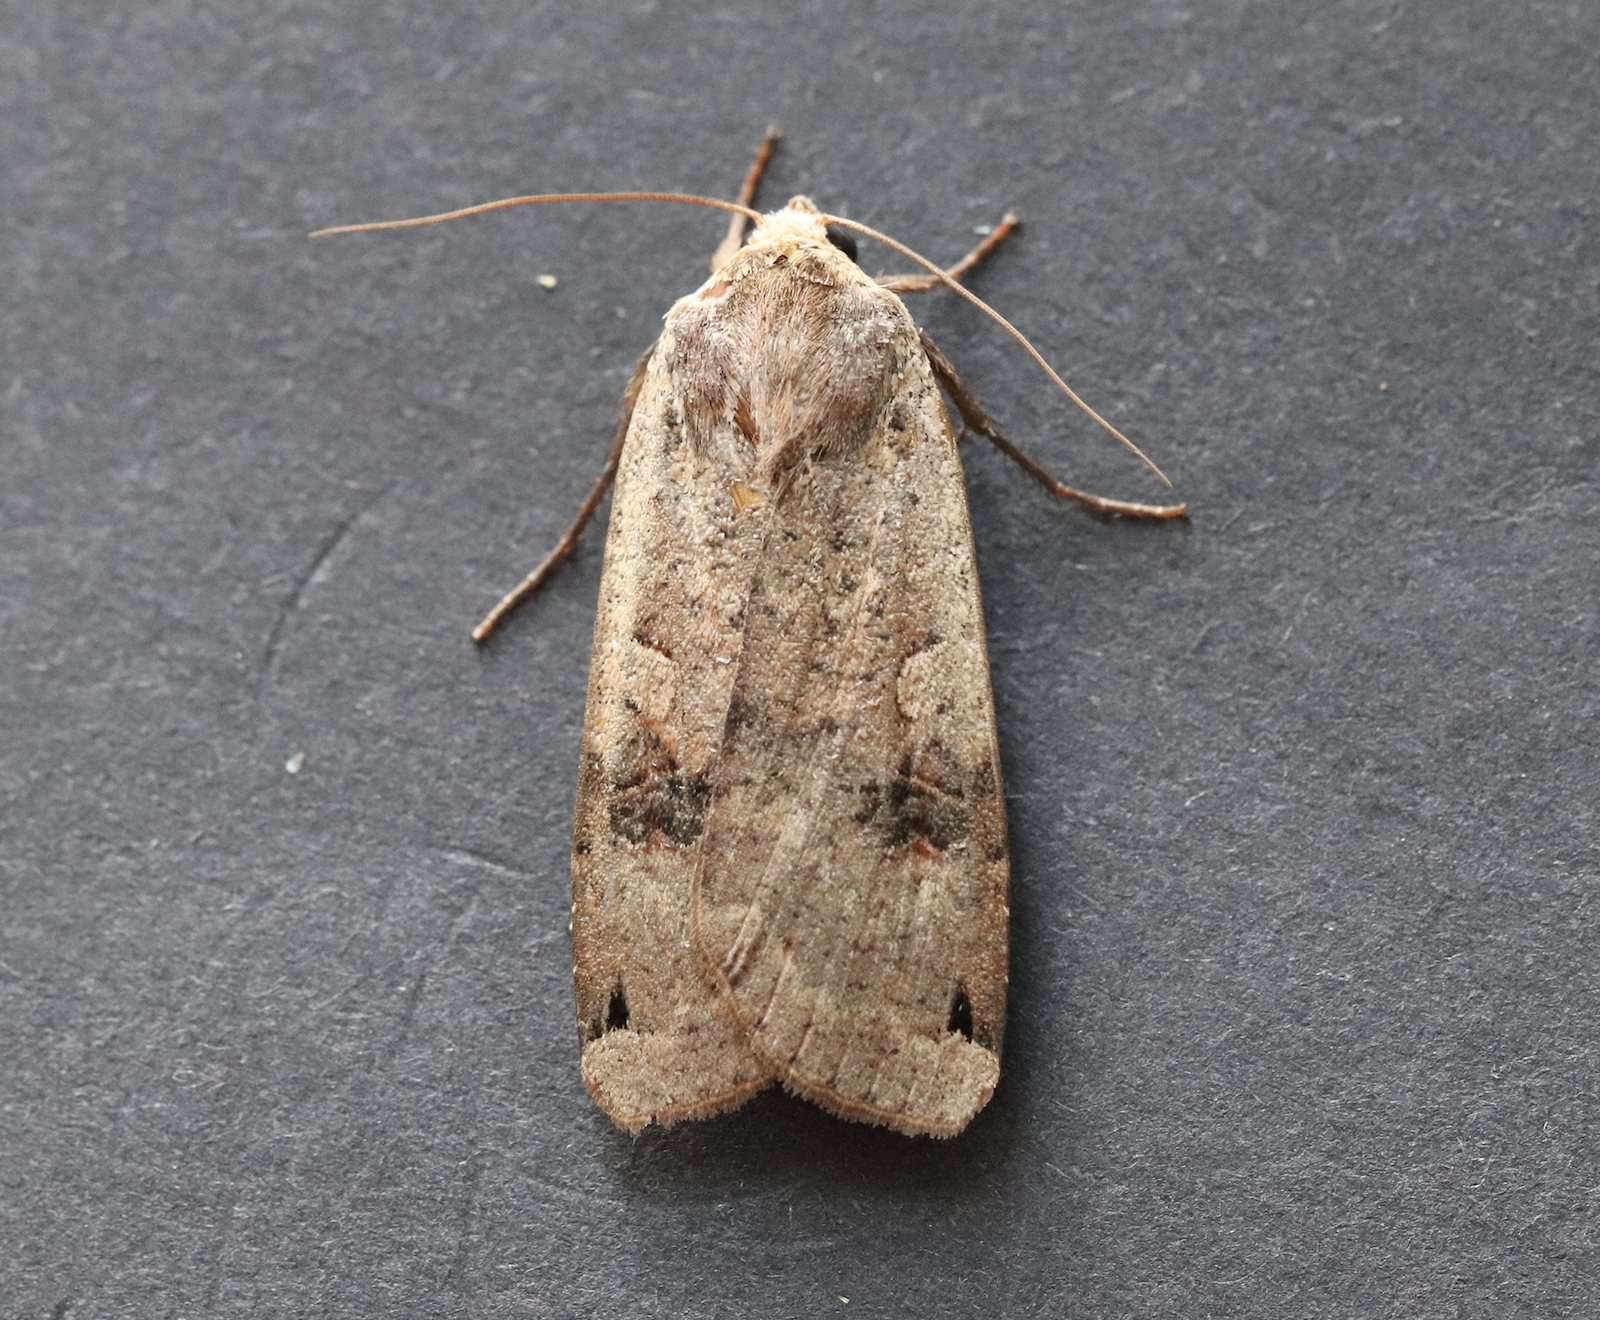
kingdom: Animalia
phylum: Arthropoda
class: Insecta
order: Lepidoptera
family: Noctuidae
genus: Noctua
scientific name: Noctua pronuba
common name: Large yellow underwing
